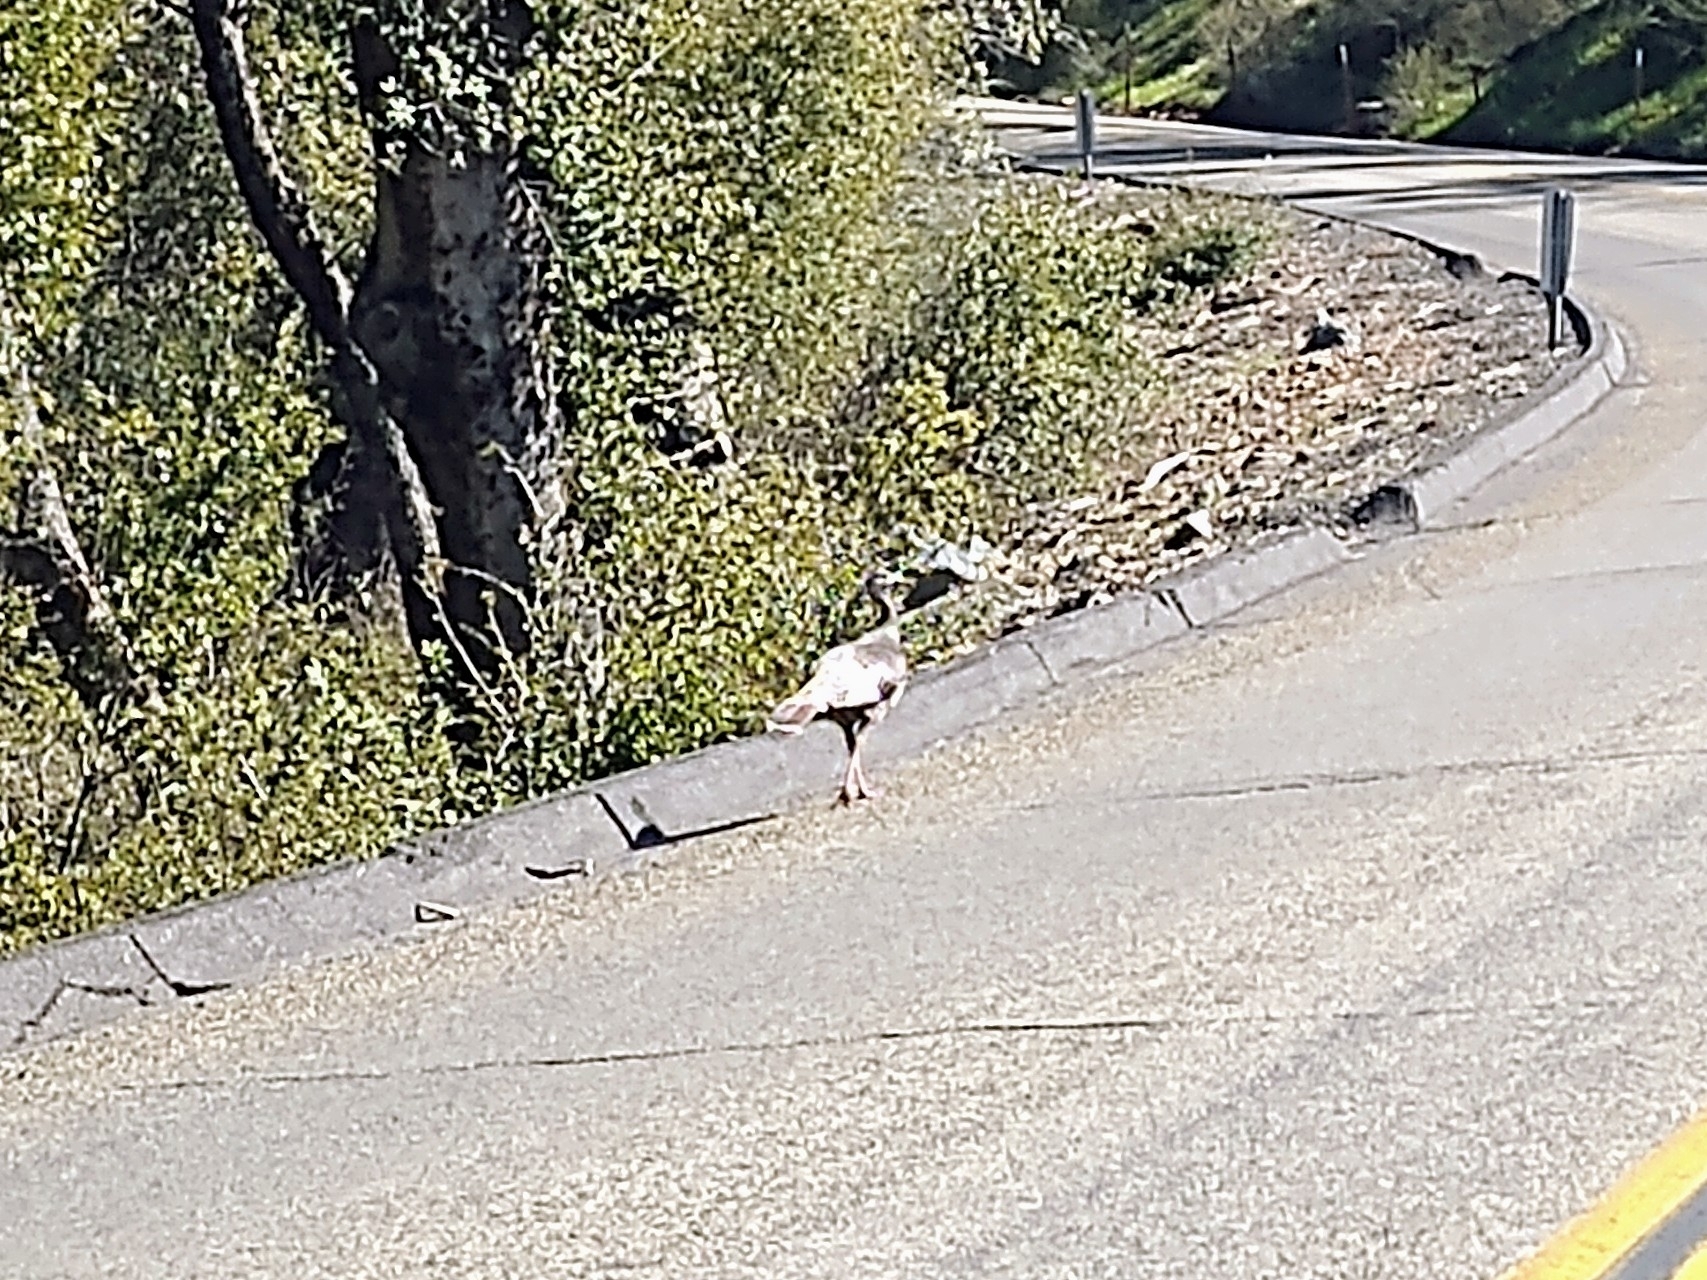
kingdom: Animalia
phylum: Chordata
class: Aves
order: Galliformes
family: Phasianidae
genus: Meleagris
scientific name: Meleagris gallopavo
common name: Wild turkey
